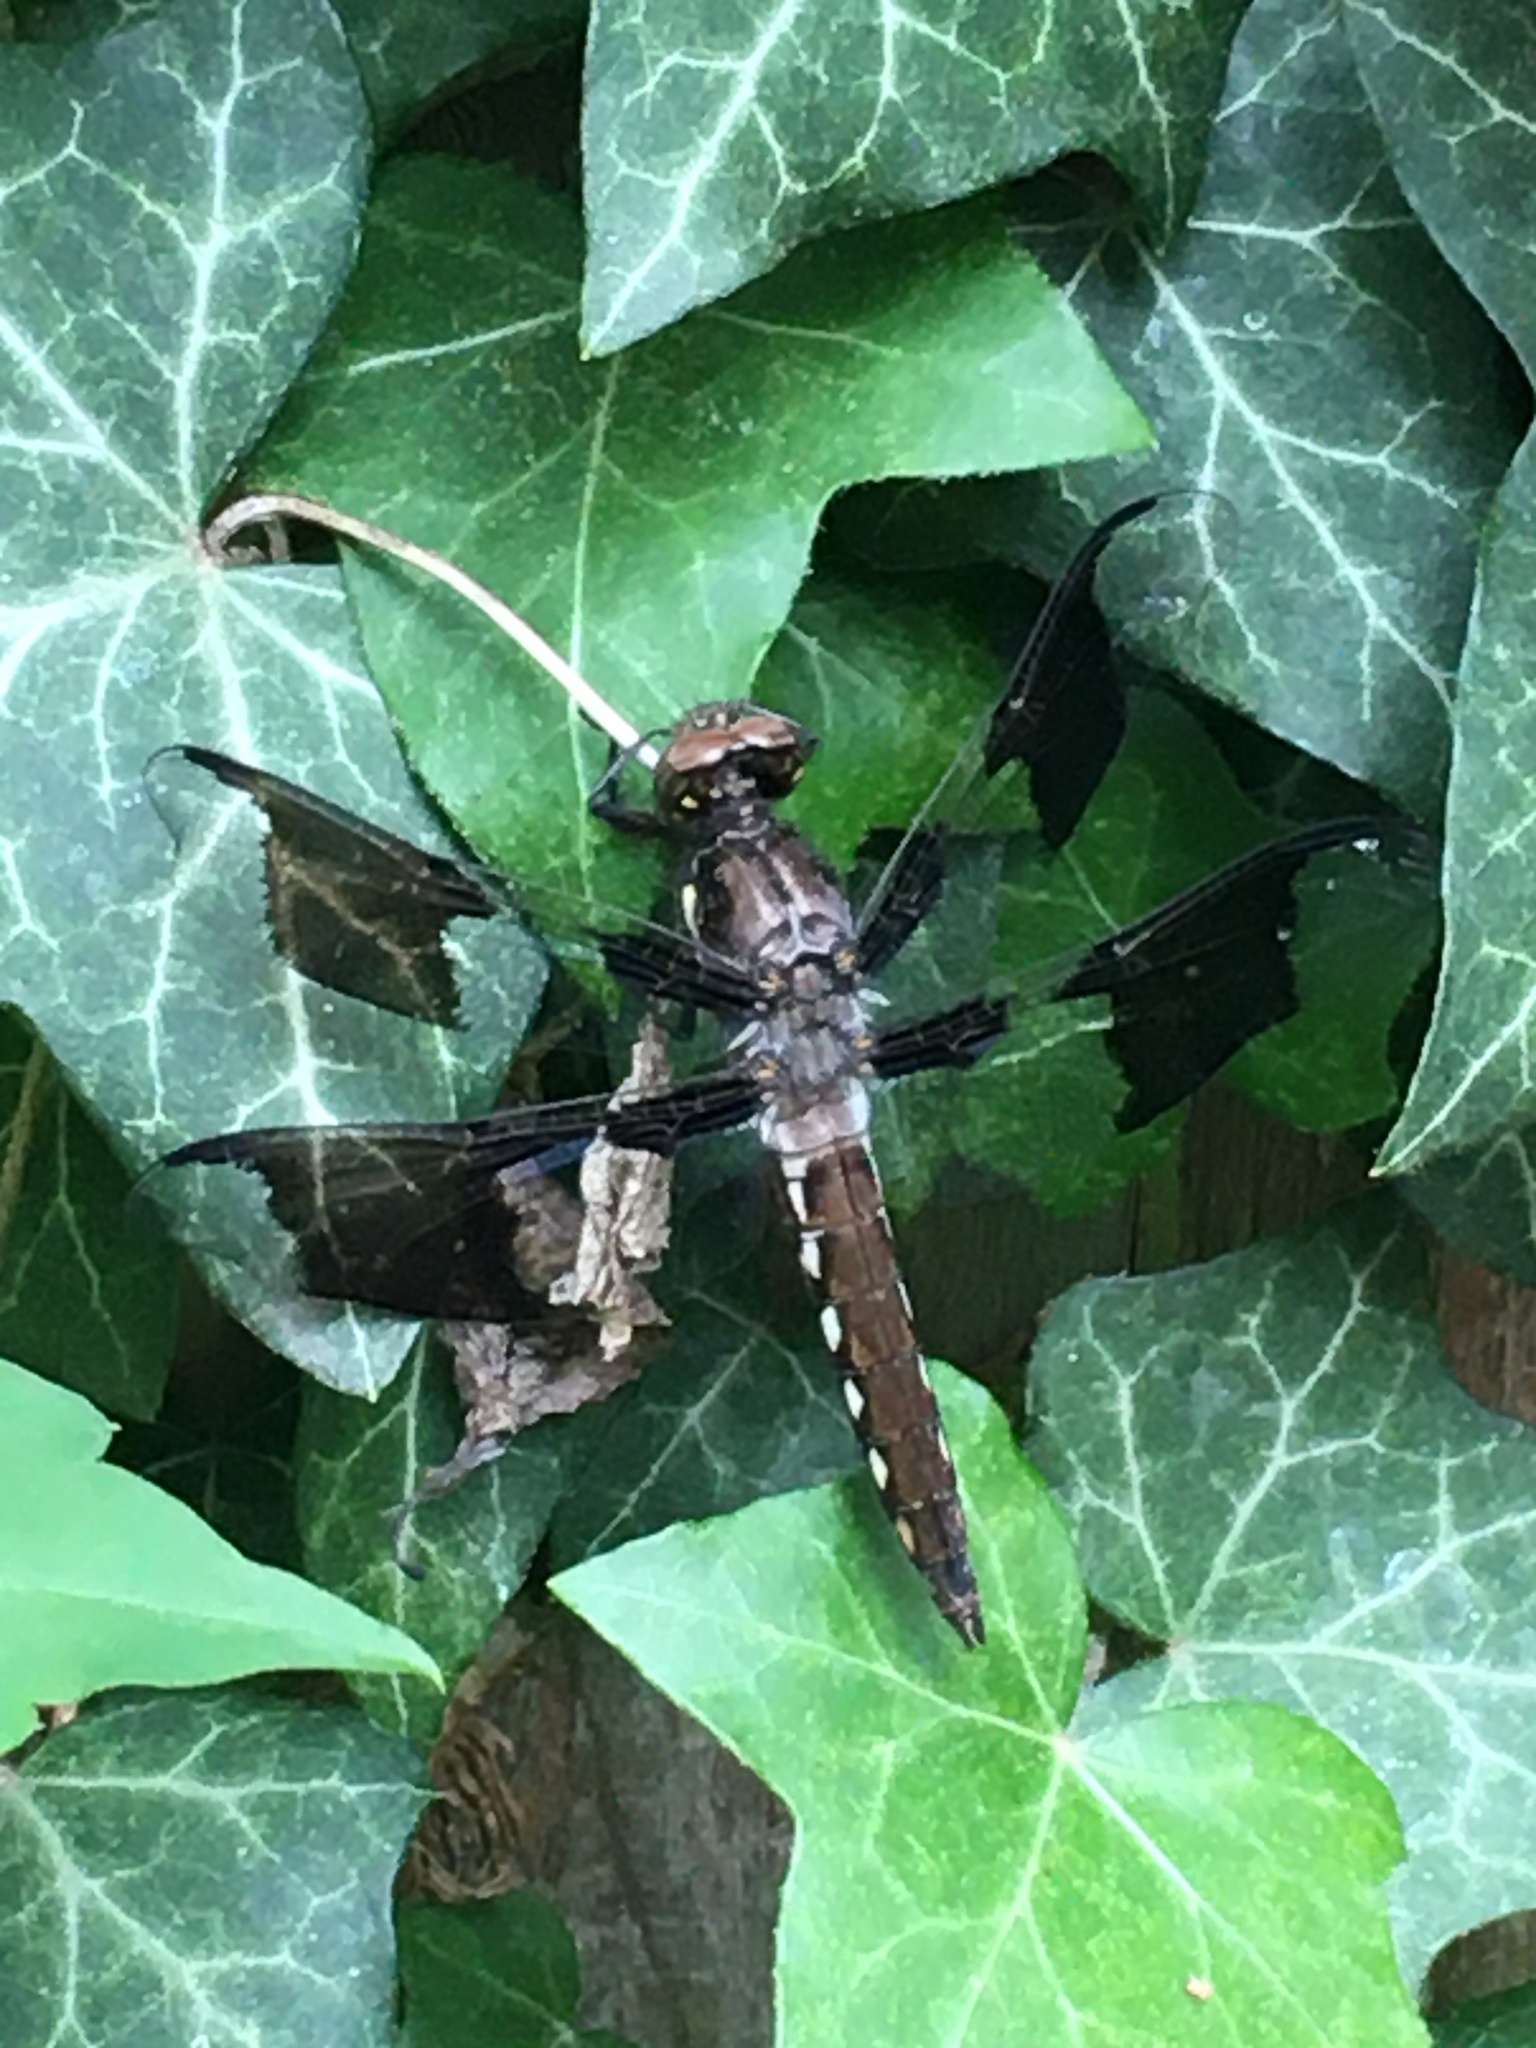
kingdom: Animalia
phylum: Arthropoda
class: Insecta
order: Odonata
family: Libellulidae
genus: Plathemis
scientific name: Plathemis lydia
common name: Common whitetail
